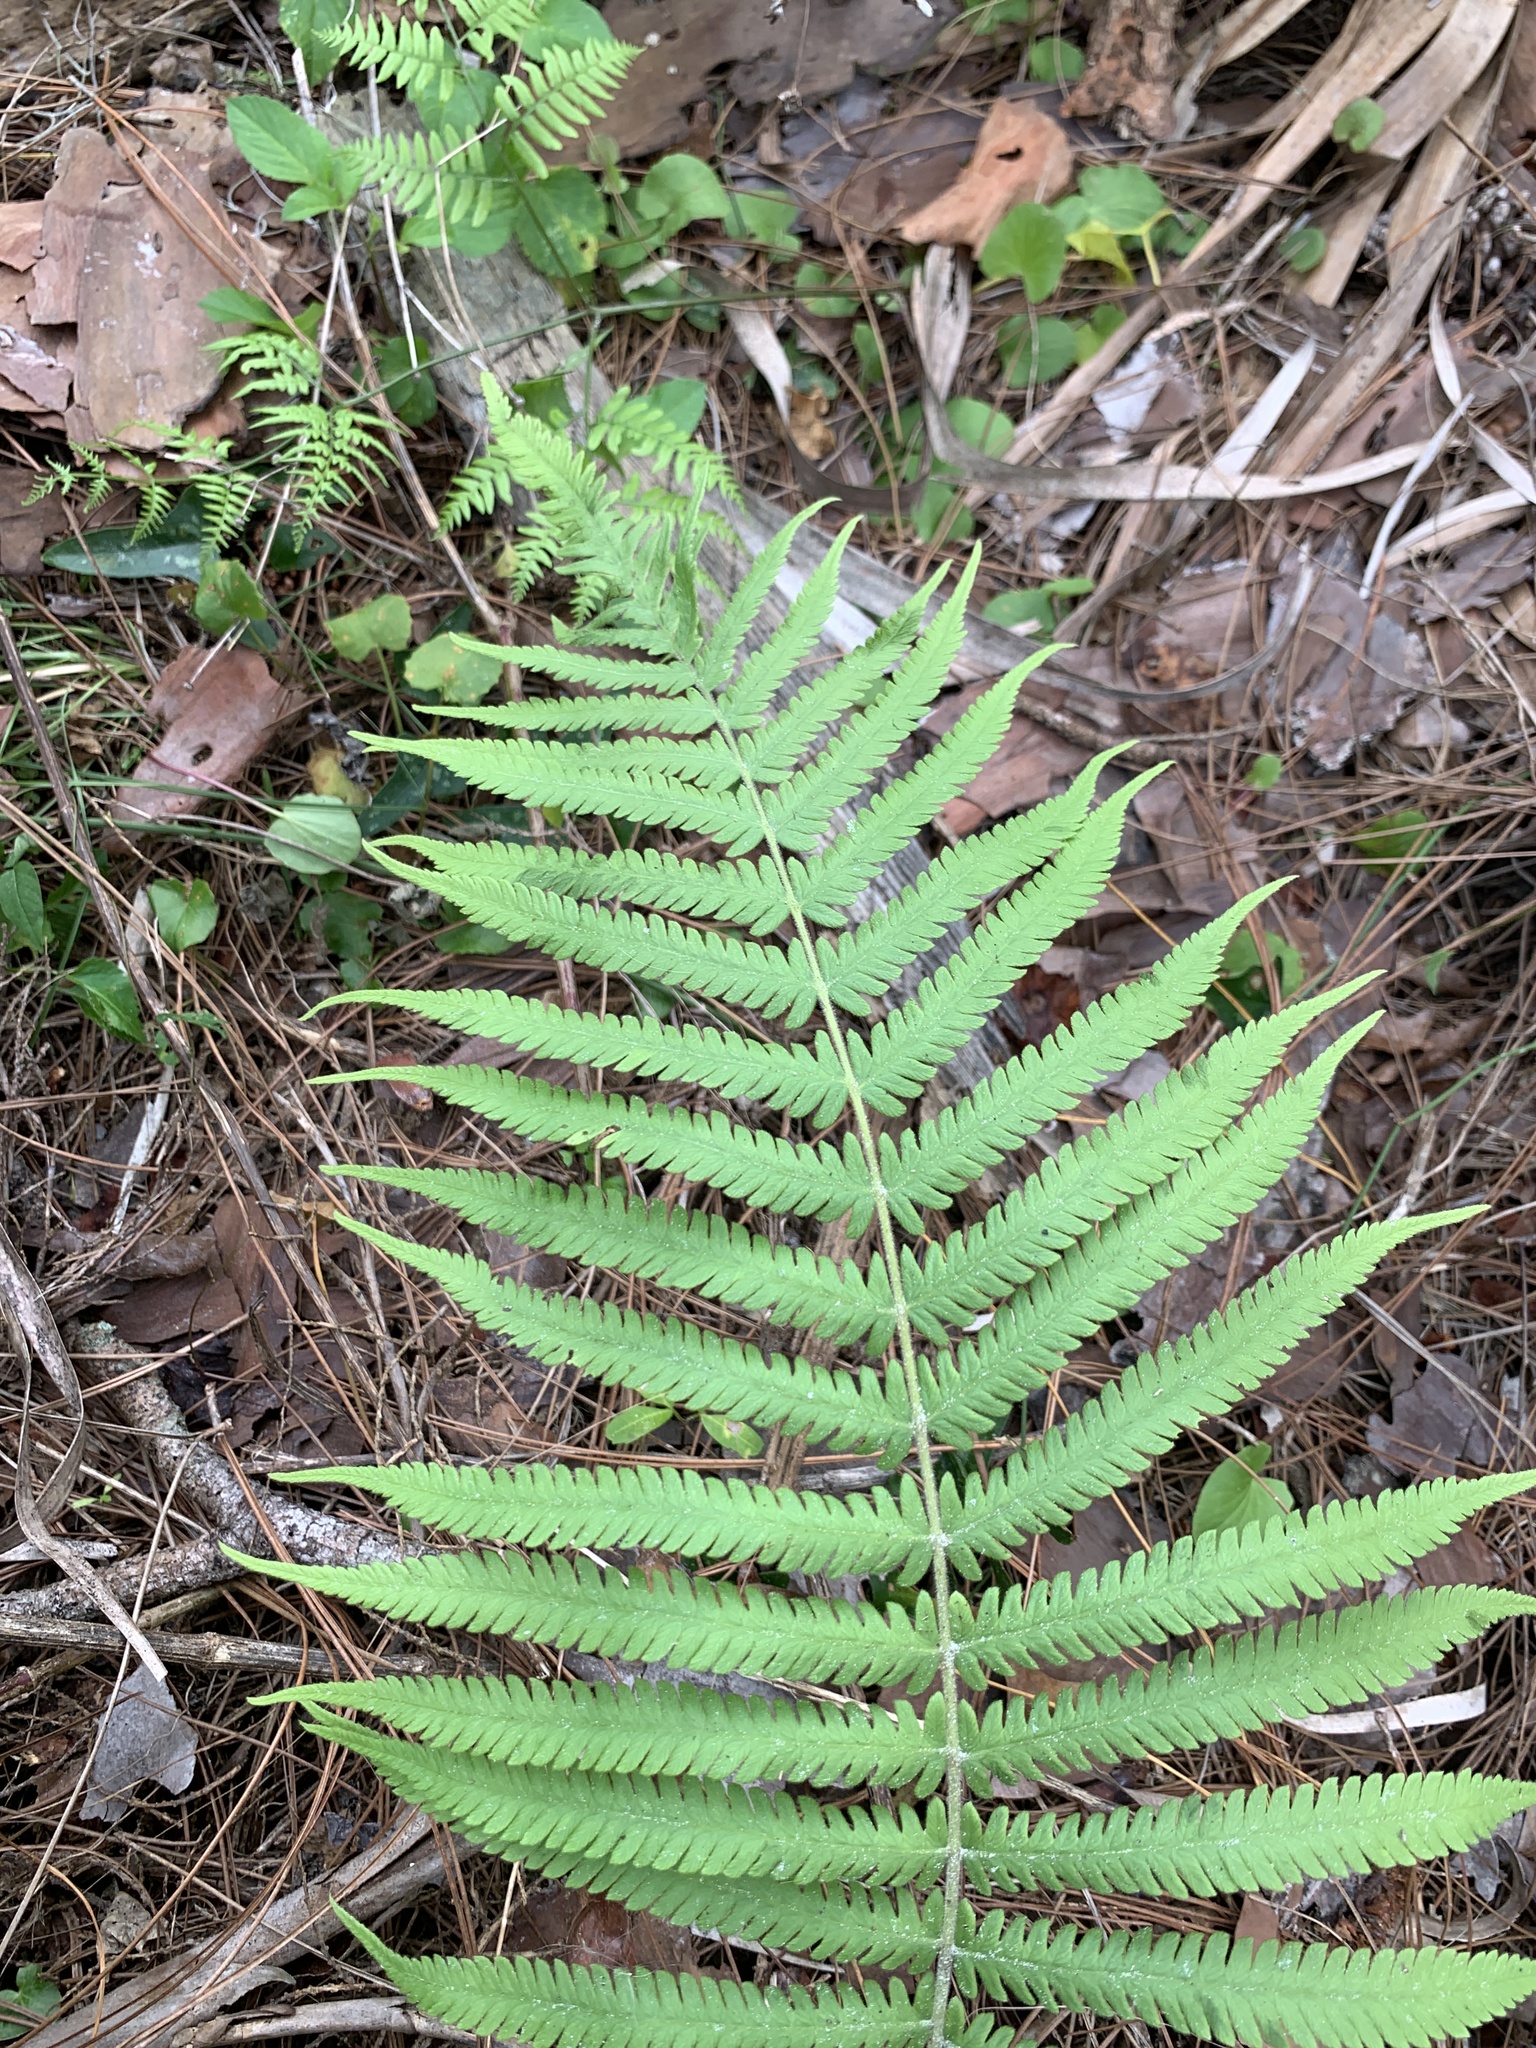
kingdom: Plantae
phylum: Tracheophyta
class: Polypodiopsida
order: Polypodiales
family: Thelypteridaceae
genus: Pelazoneuron
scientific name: Pelazoneuron kunthii
